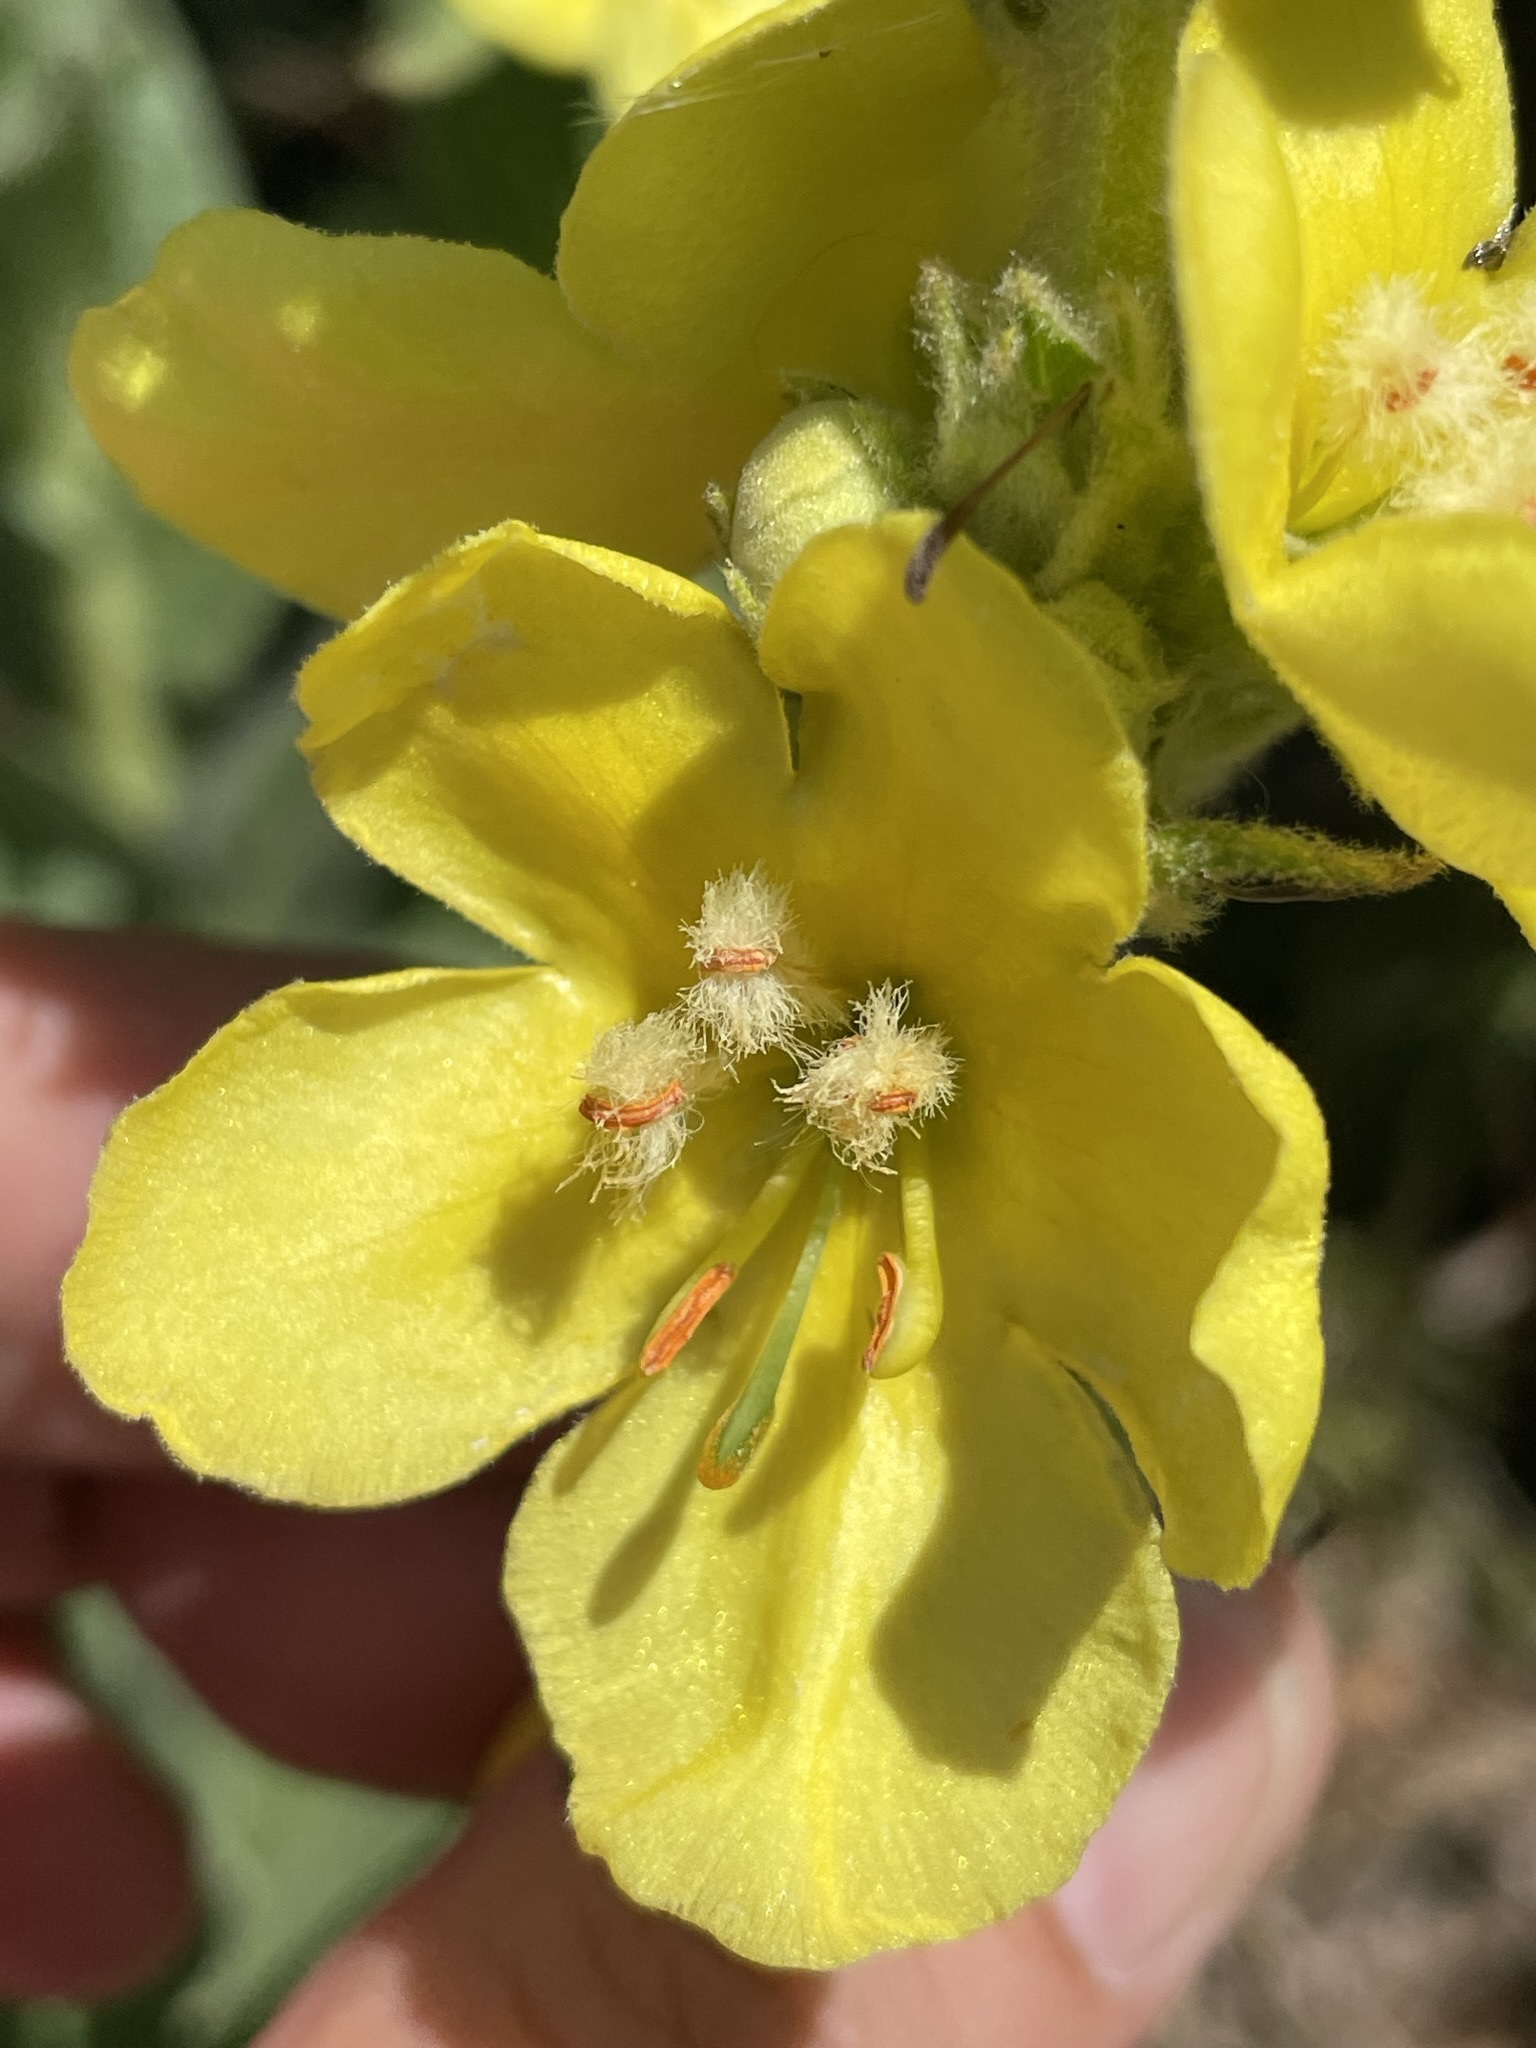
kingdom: Plantae
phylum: Tracheophyta
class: Magnoliopsida
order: Lamiales
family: Scrophulariaceae
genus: Verbascum
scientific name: Verbascum phlomoides
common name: Orange mullein
